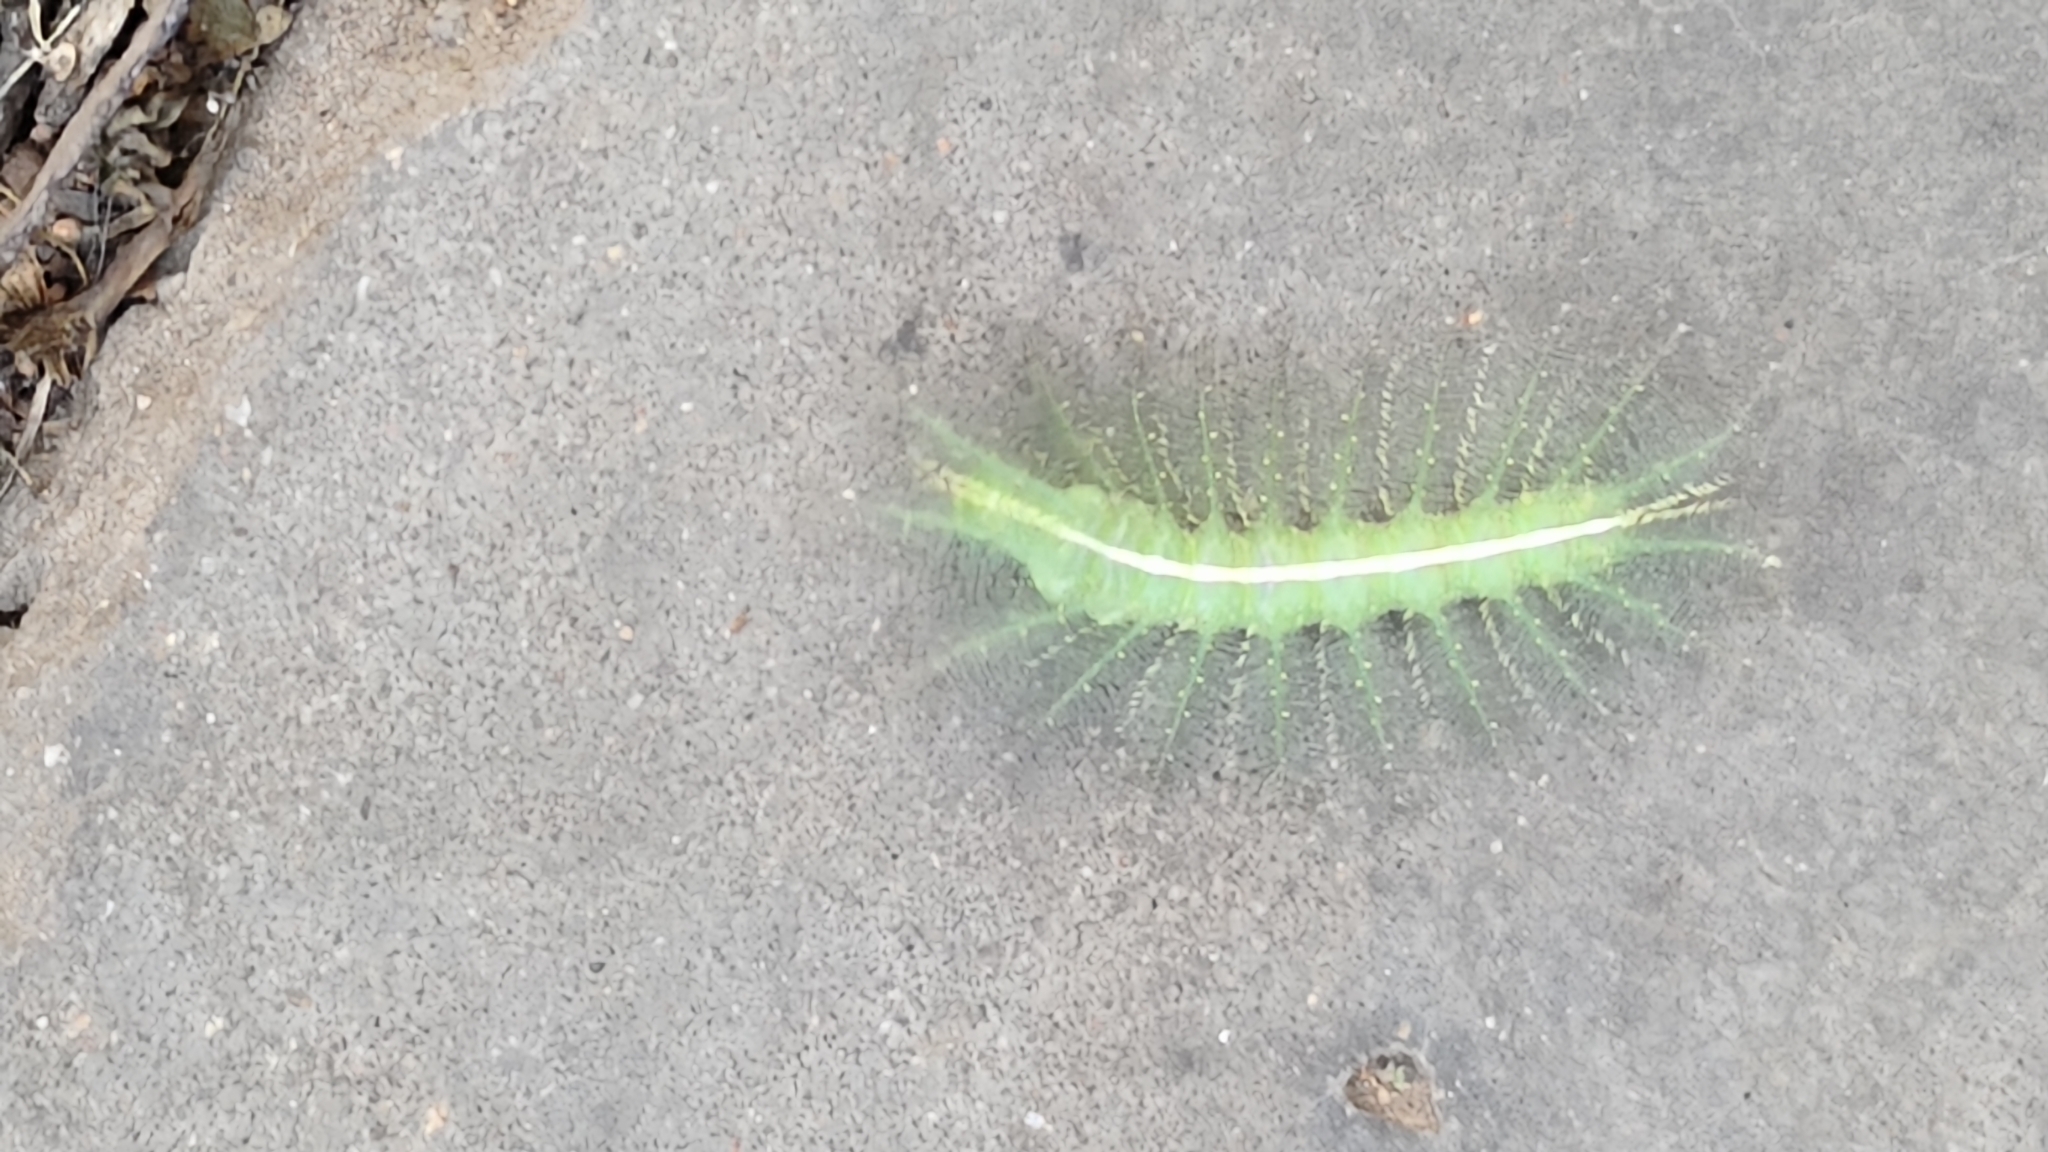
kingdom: Animalia
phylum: Arthropoda
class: Insecta
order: Lepidoptera
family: Nymphalidae
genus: Euthalia
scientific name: Euthalia aconthea
